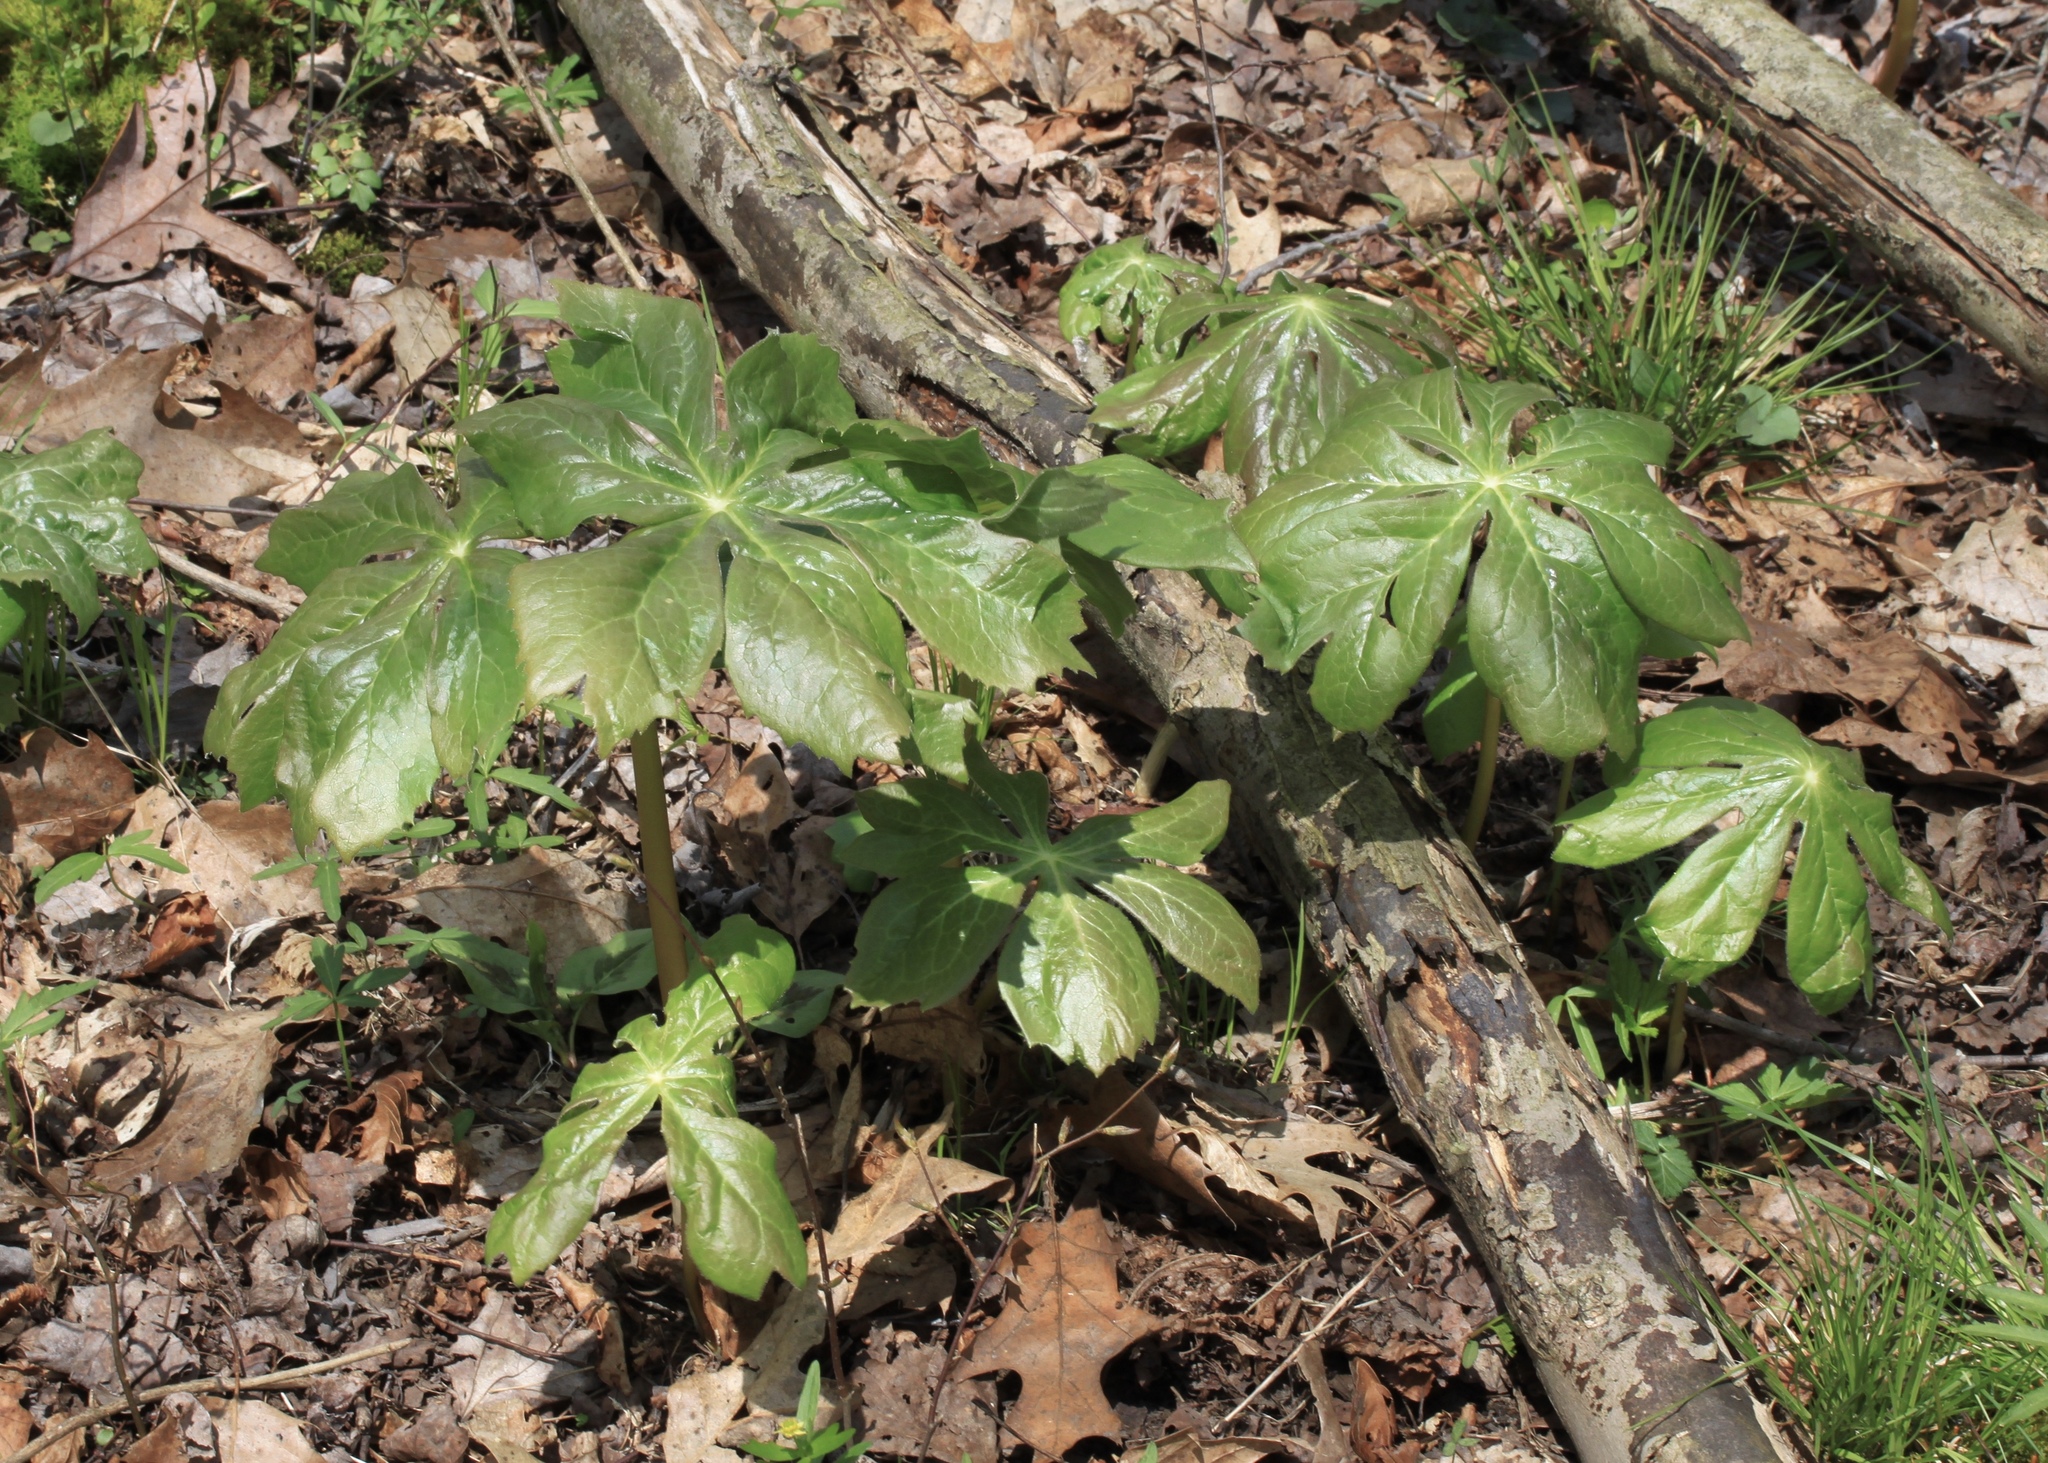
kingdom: Plantae
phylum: Tracheophyta
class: Magnoliopsida
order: Ranunculales
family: Berberidaceae
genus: Podophyllum
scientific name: Podophyllum peltatum
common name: Wild mandrake
